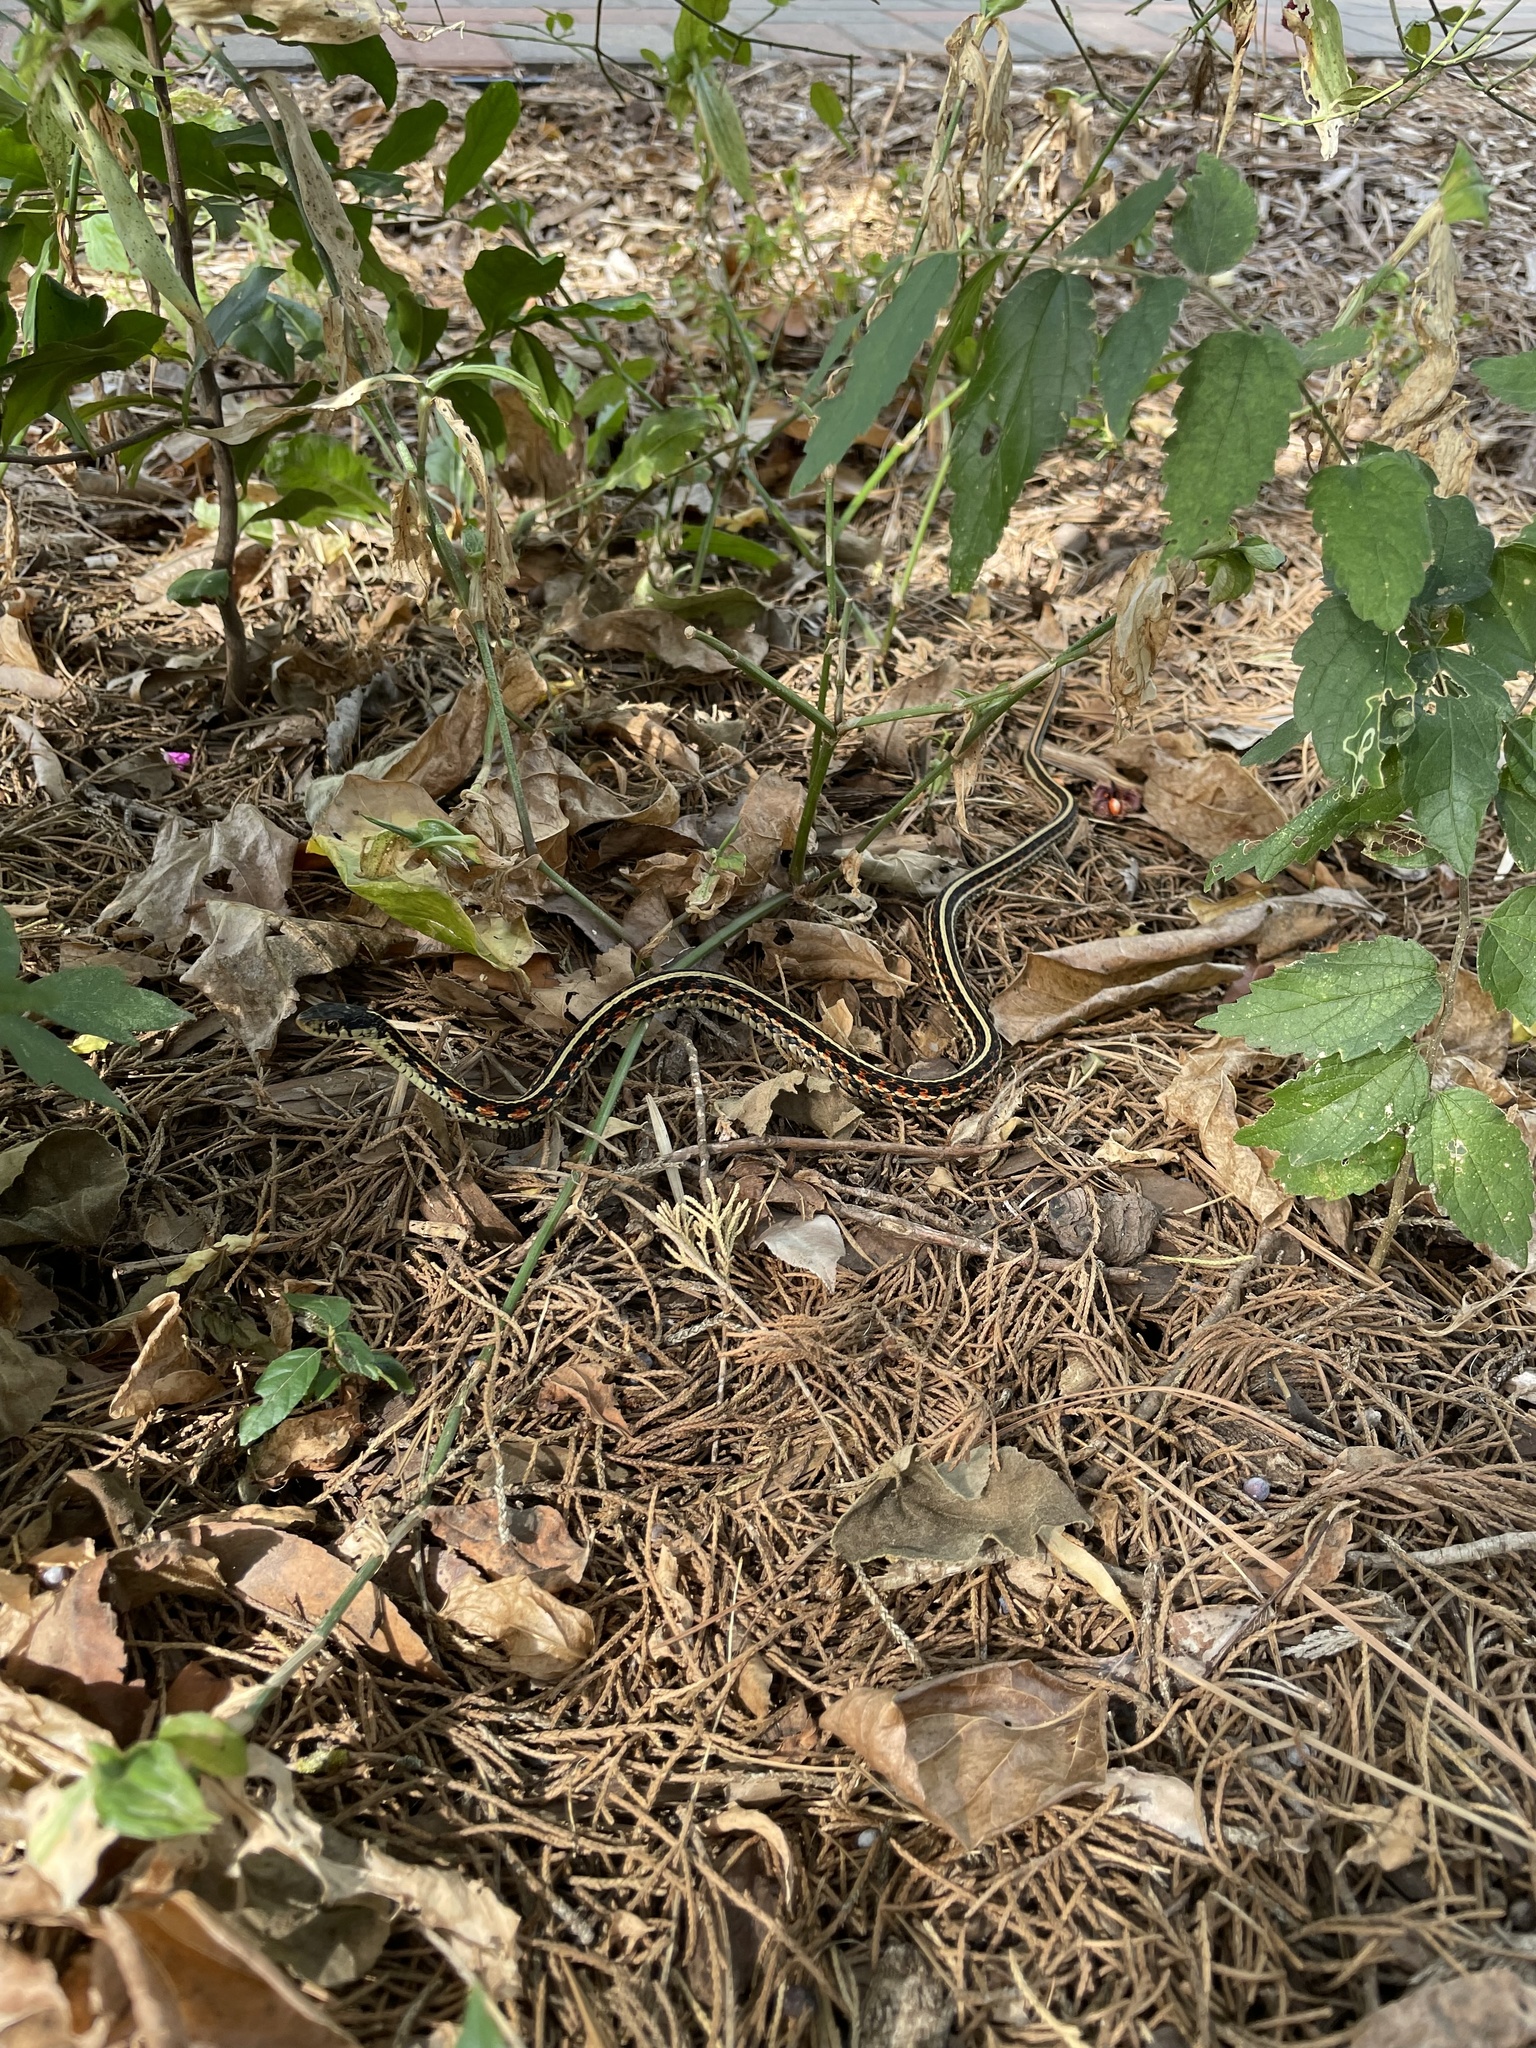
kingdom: Animalia
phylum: Chordata
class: Squamata
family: Colubridae
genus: Thamnophis
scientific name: Thamnophis sirtalis
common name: Common garter snake
